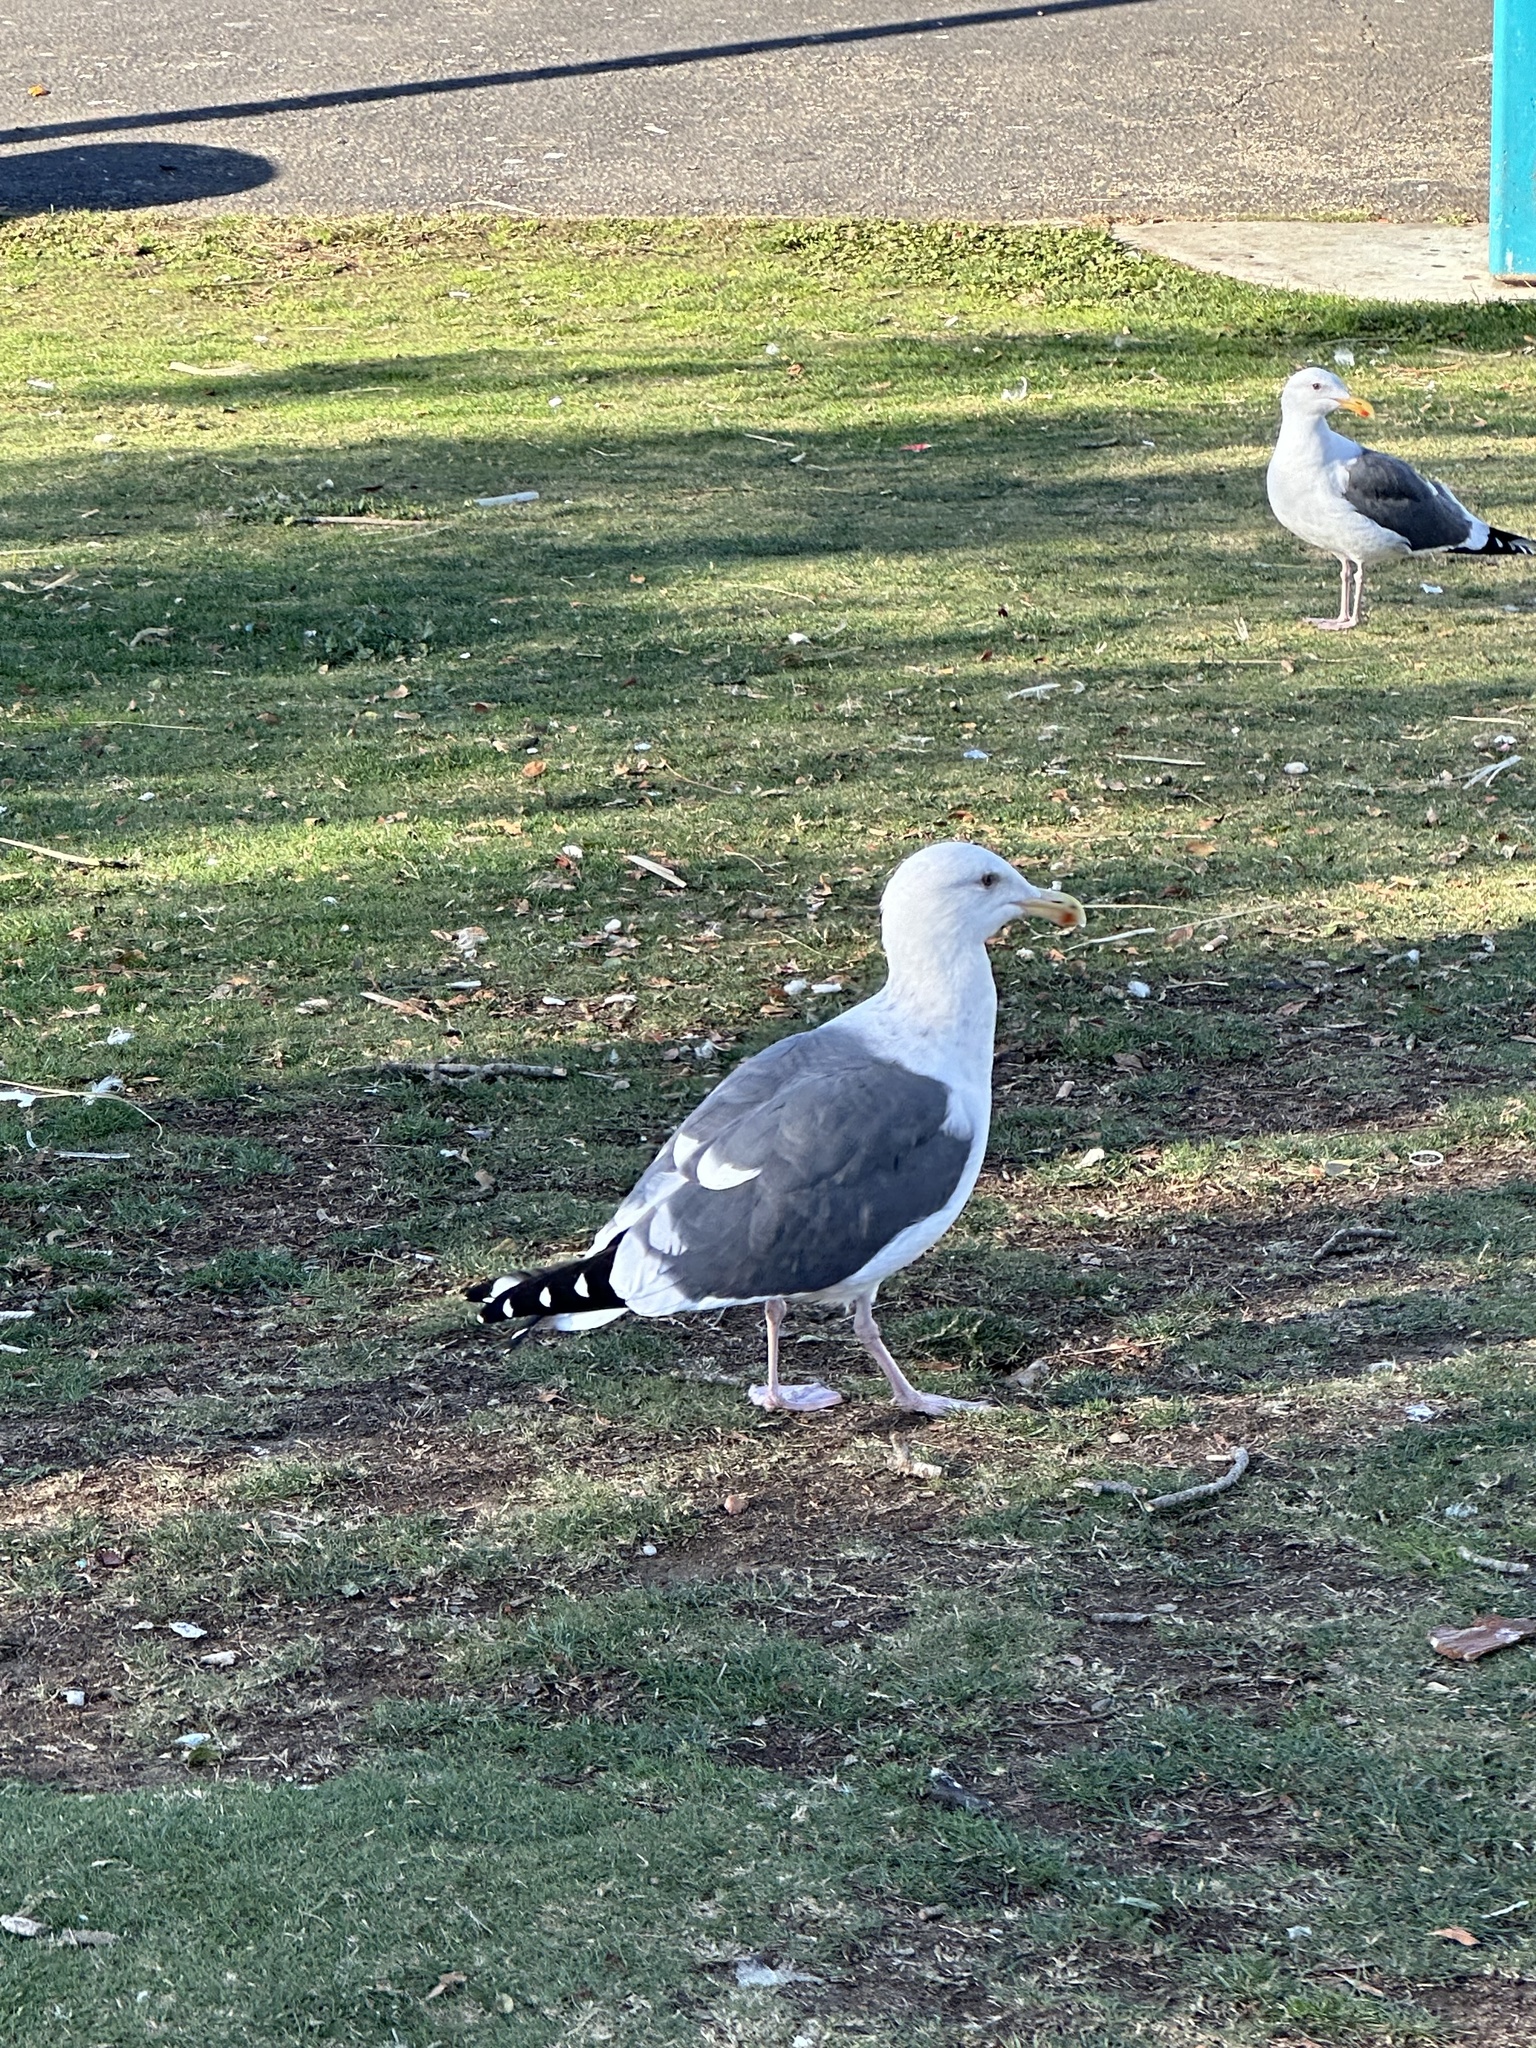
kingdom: Animalia
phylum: Chordata
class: Aves
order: Charadriiformes
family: Laridae
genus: Larus
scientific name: Larus occidentalis
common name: Western gull
